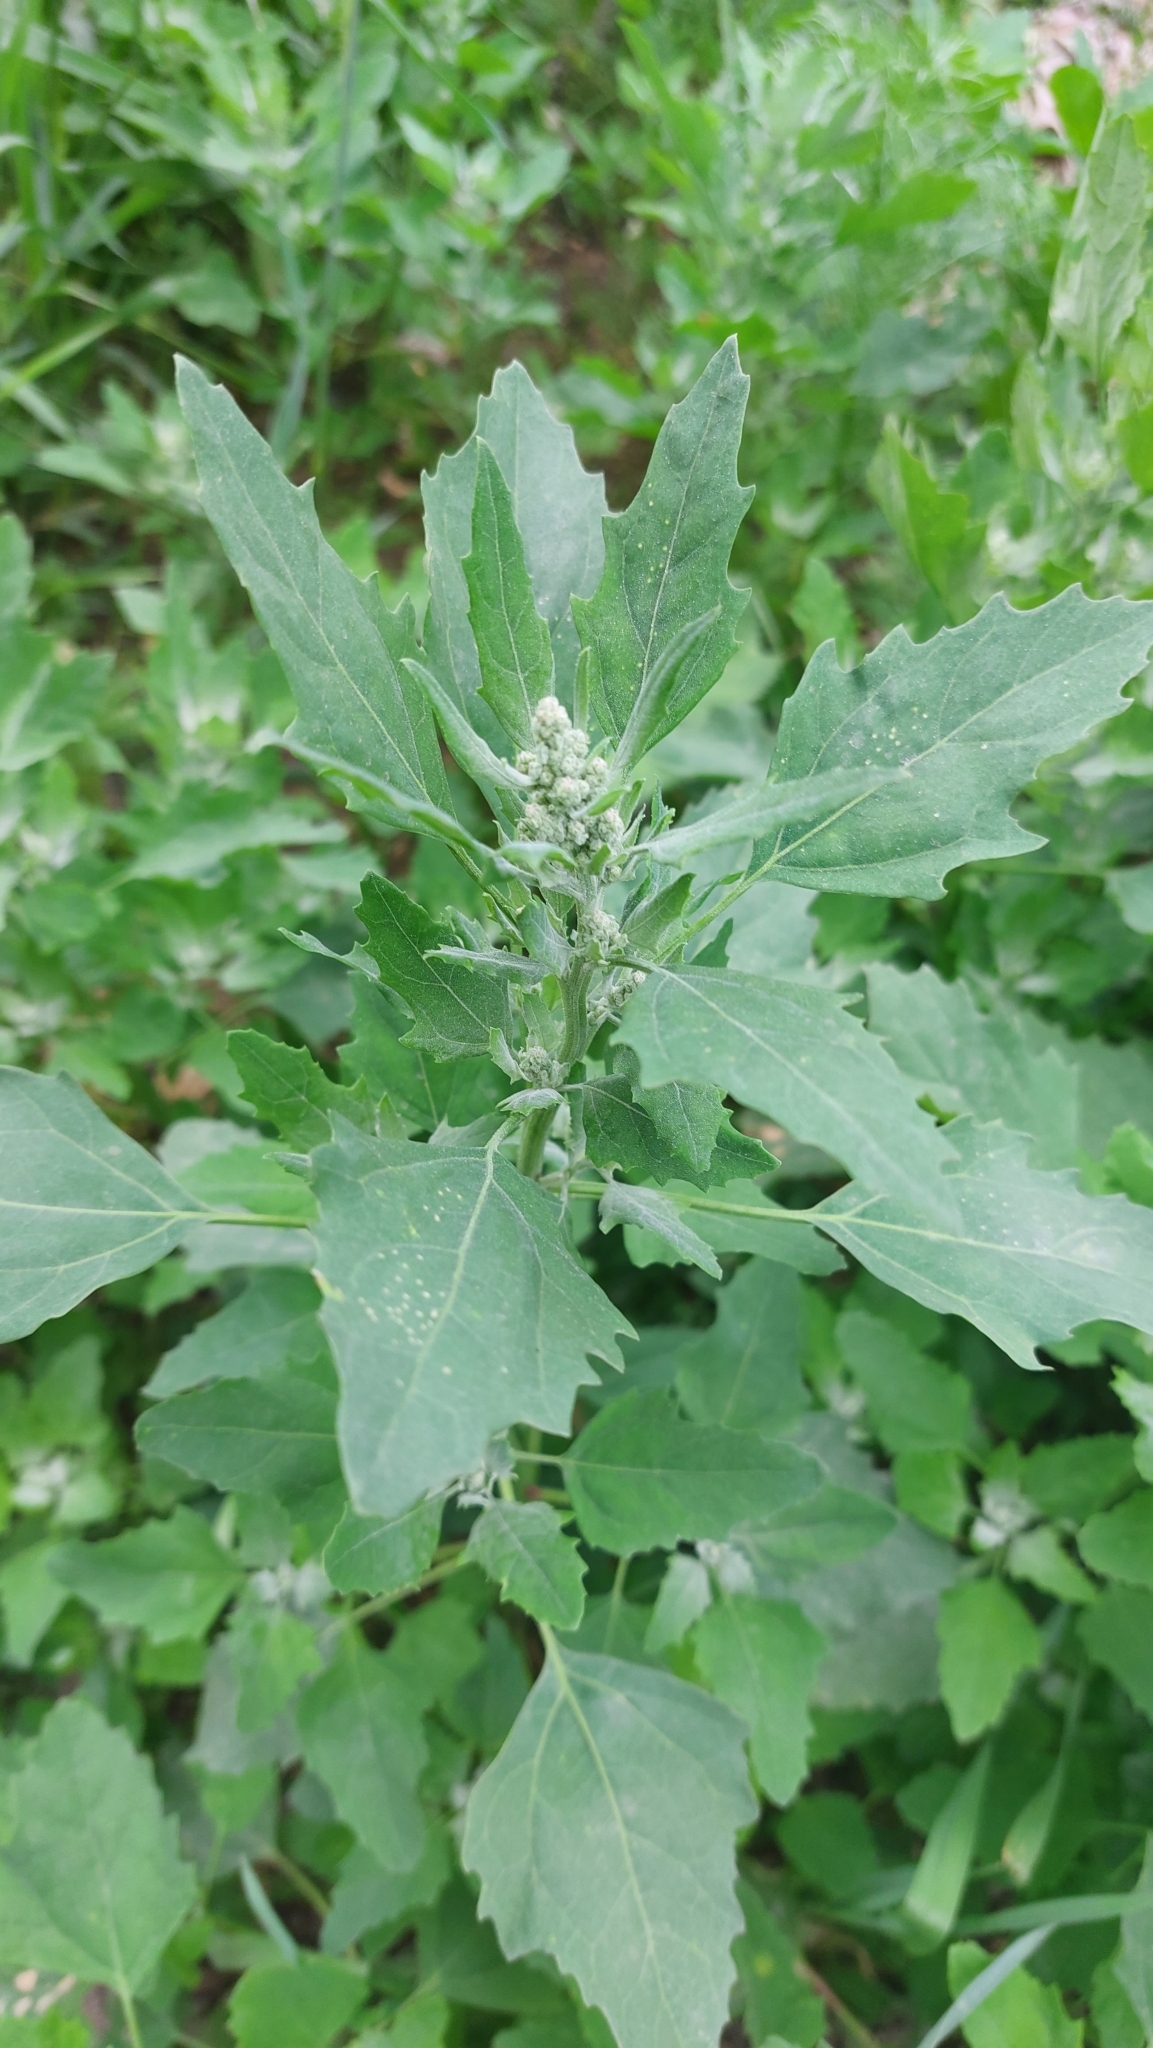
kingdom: Plantae
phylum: Tracheophyta
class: Magnoliopsida
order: Caryophyllales
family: Amaranthaceae
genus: Chenopodium
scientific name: Chenopodium album
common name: Fat-hen
